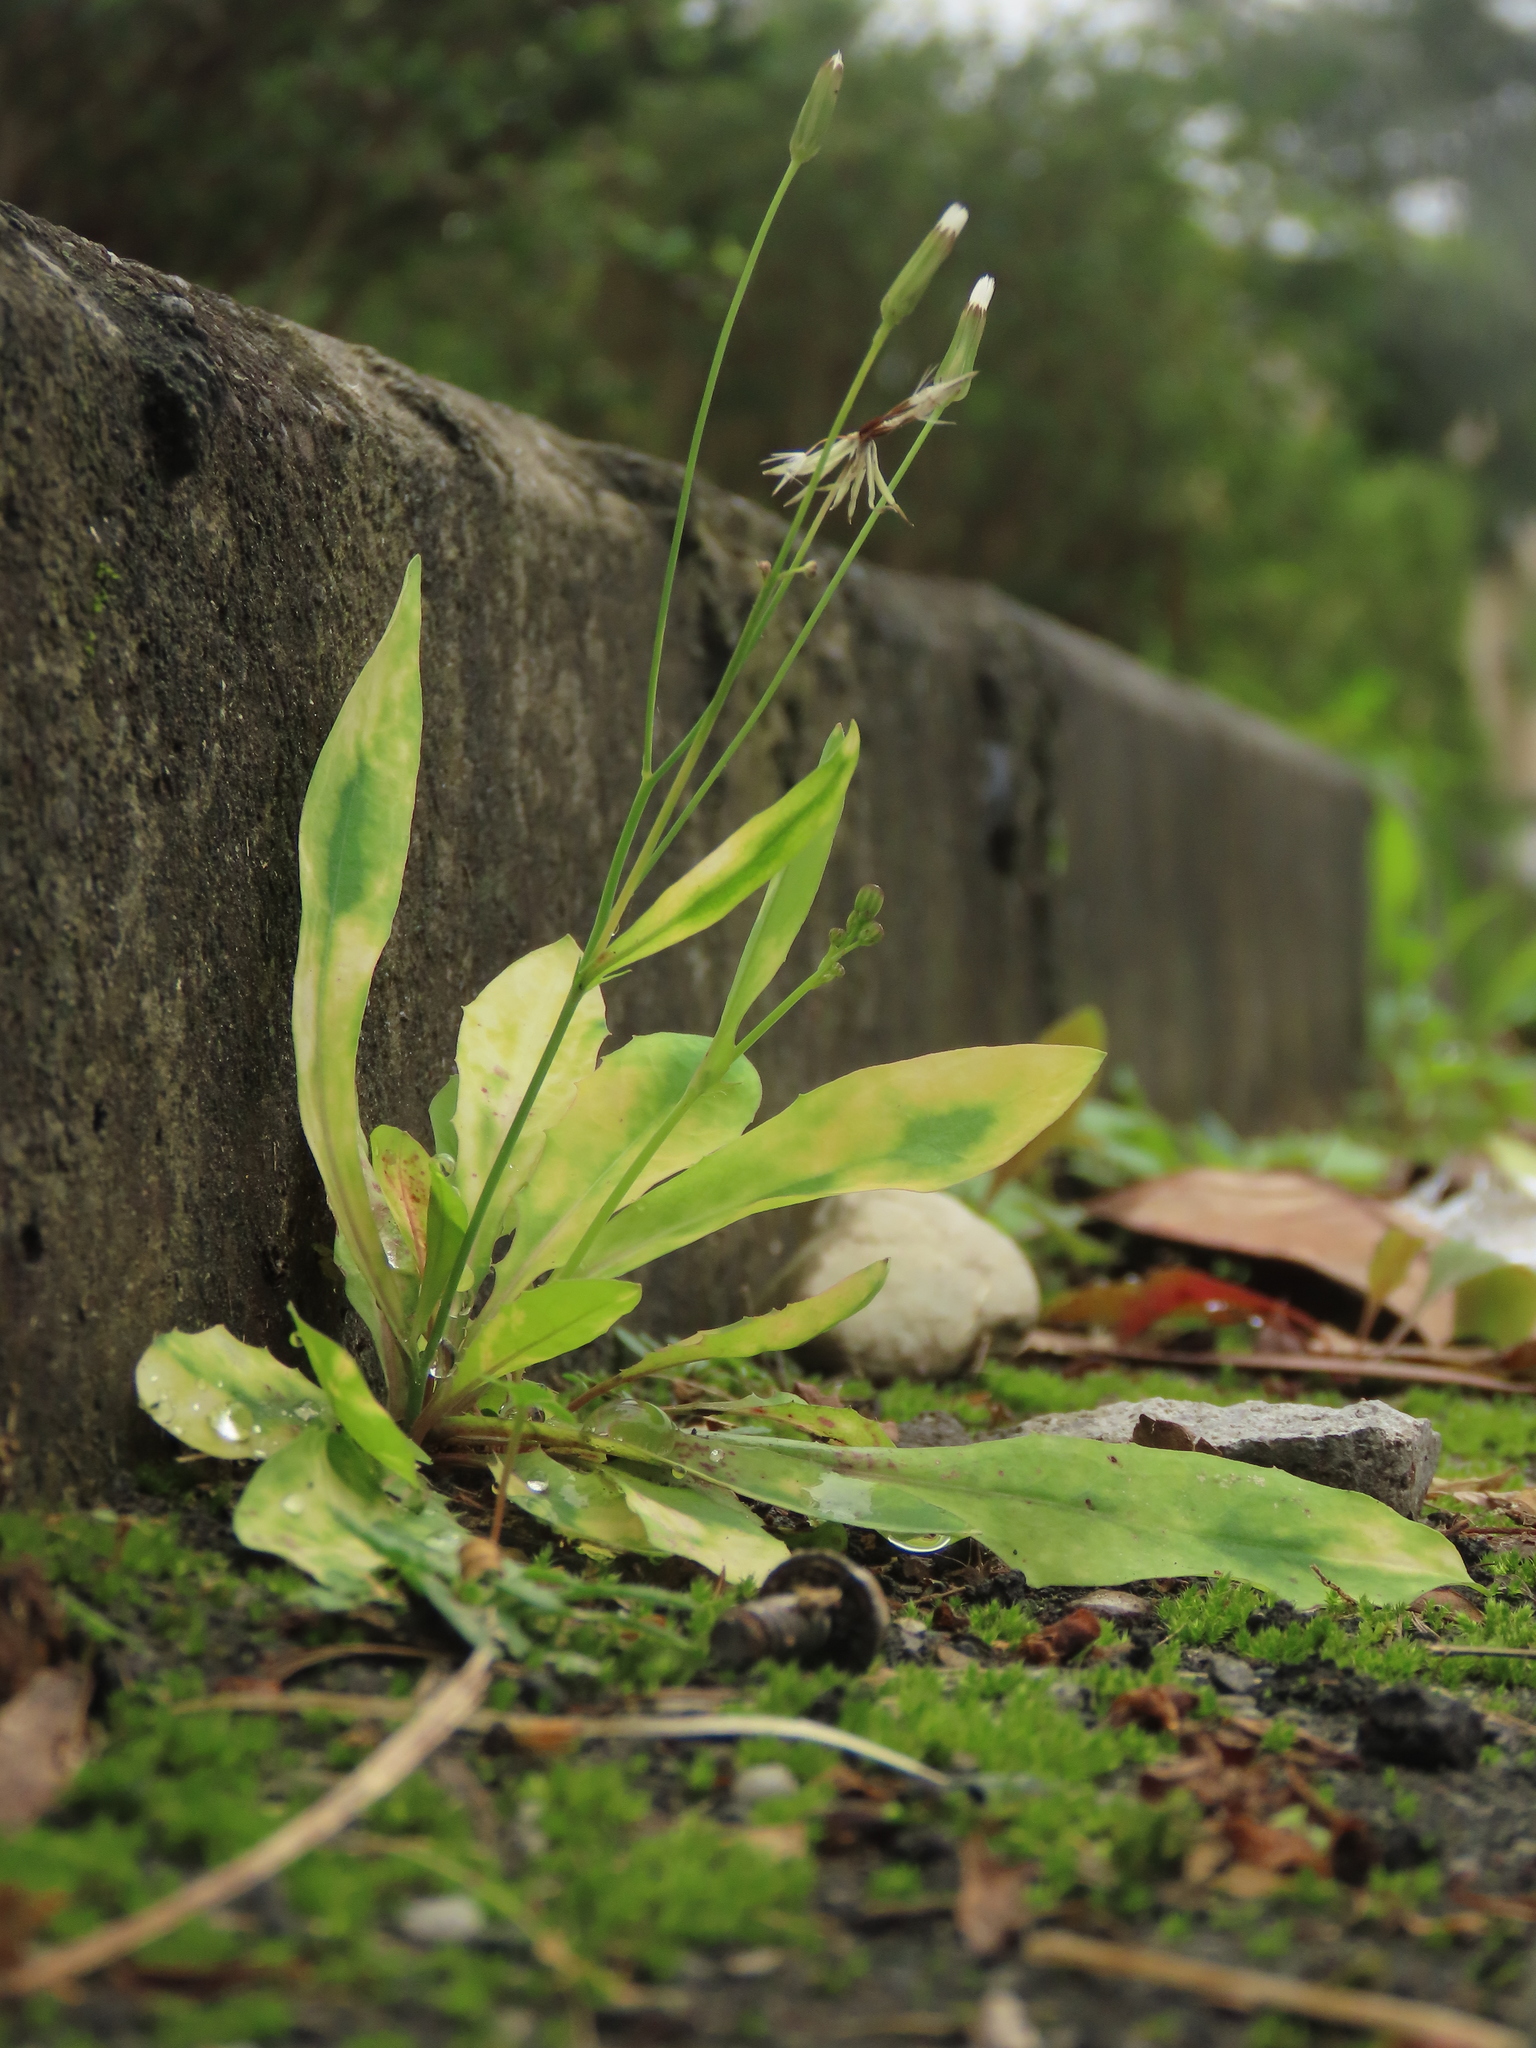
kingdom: Plantae
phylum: Tracheophyta
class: Magnoliopsida
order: Asterales
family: Asteraceae
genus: Ixeris
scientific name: Ixeris chinensis
